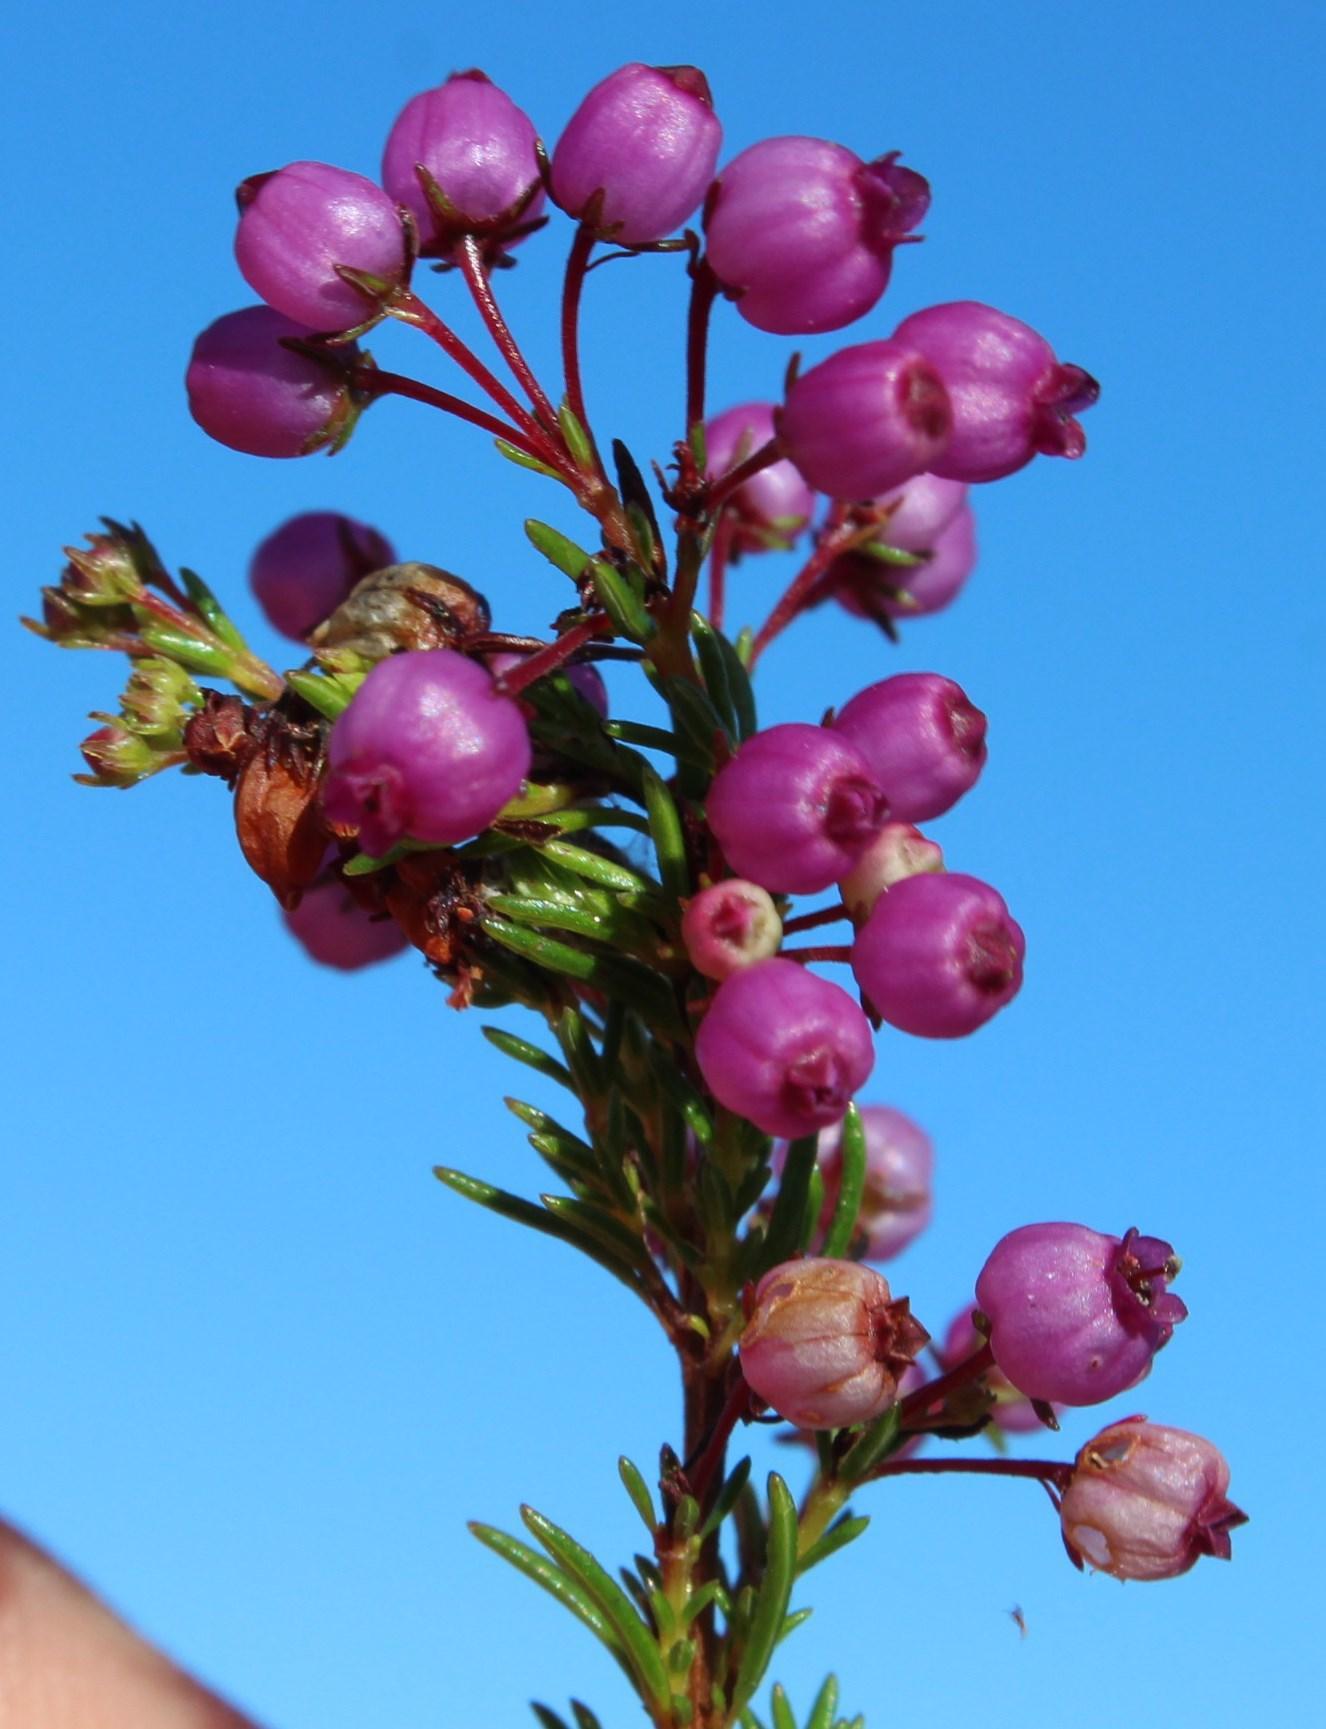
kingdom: Plantae
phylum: Tracheophyta
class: Magnoliopsida
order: Ericales
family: Ericaceae
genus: Erica
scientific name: Erica multumbellifera
